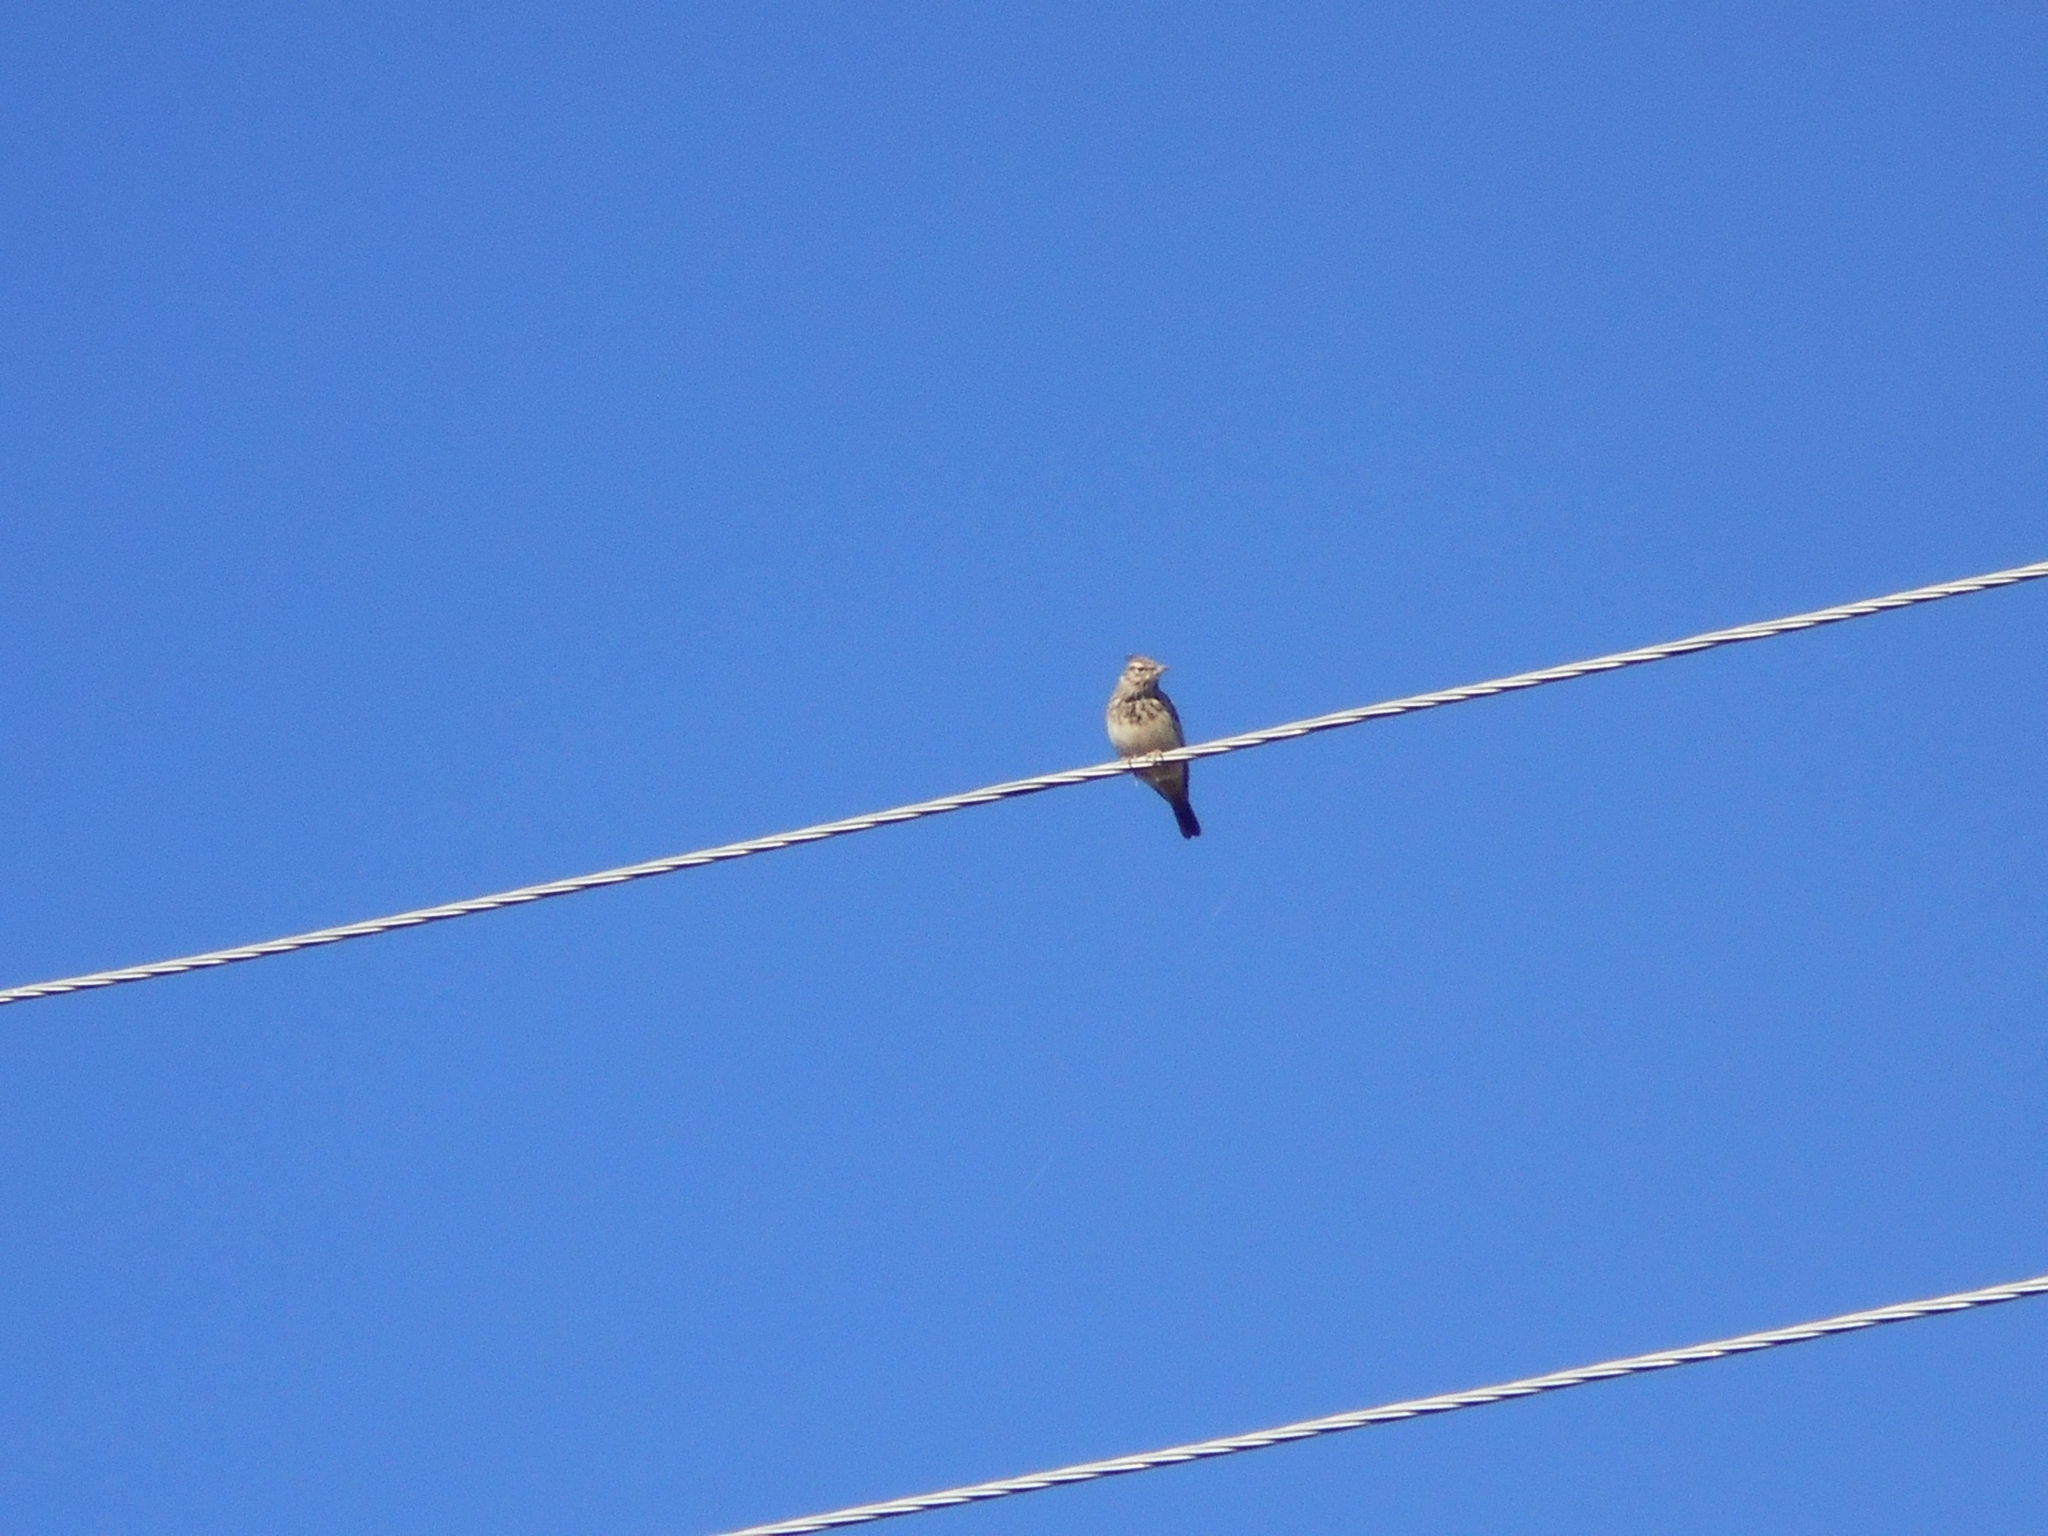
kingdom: Animalia
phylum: Chordata
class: Aves
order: Passeriformes
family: Alaudidae
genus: Galerida
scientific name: Galerida cristata
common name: Crested lark
